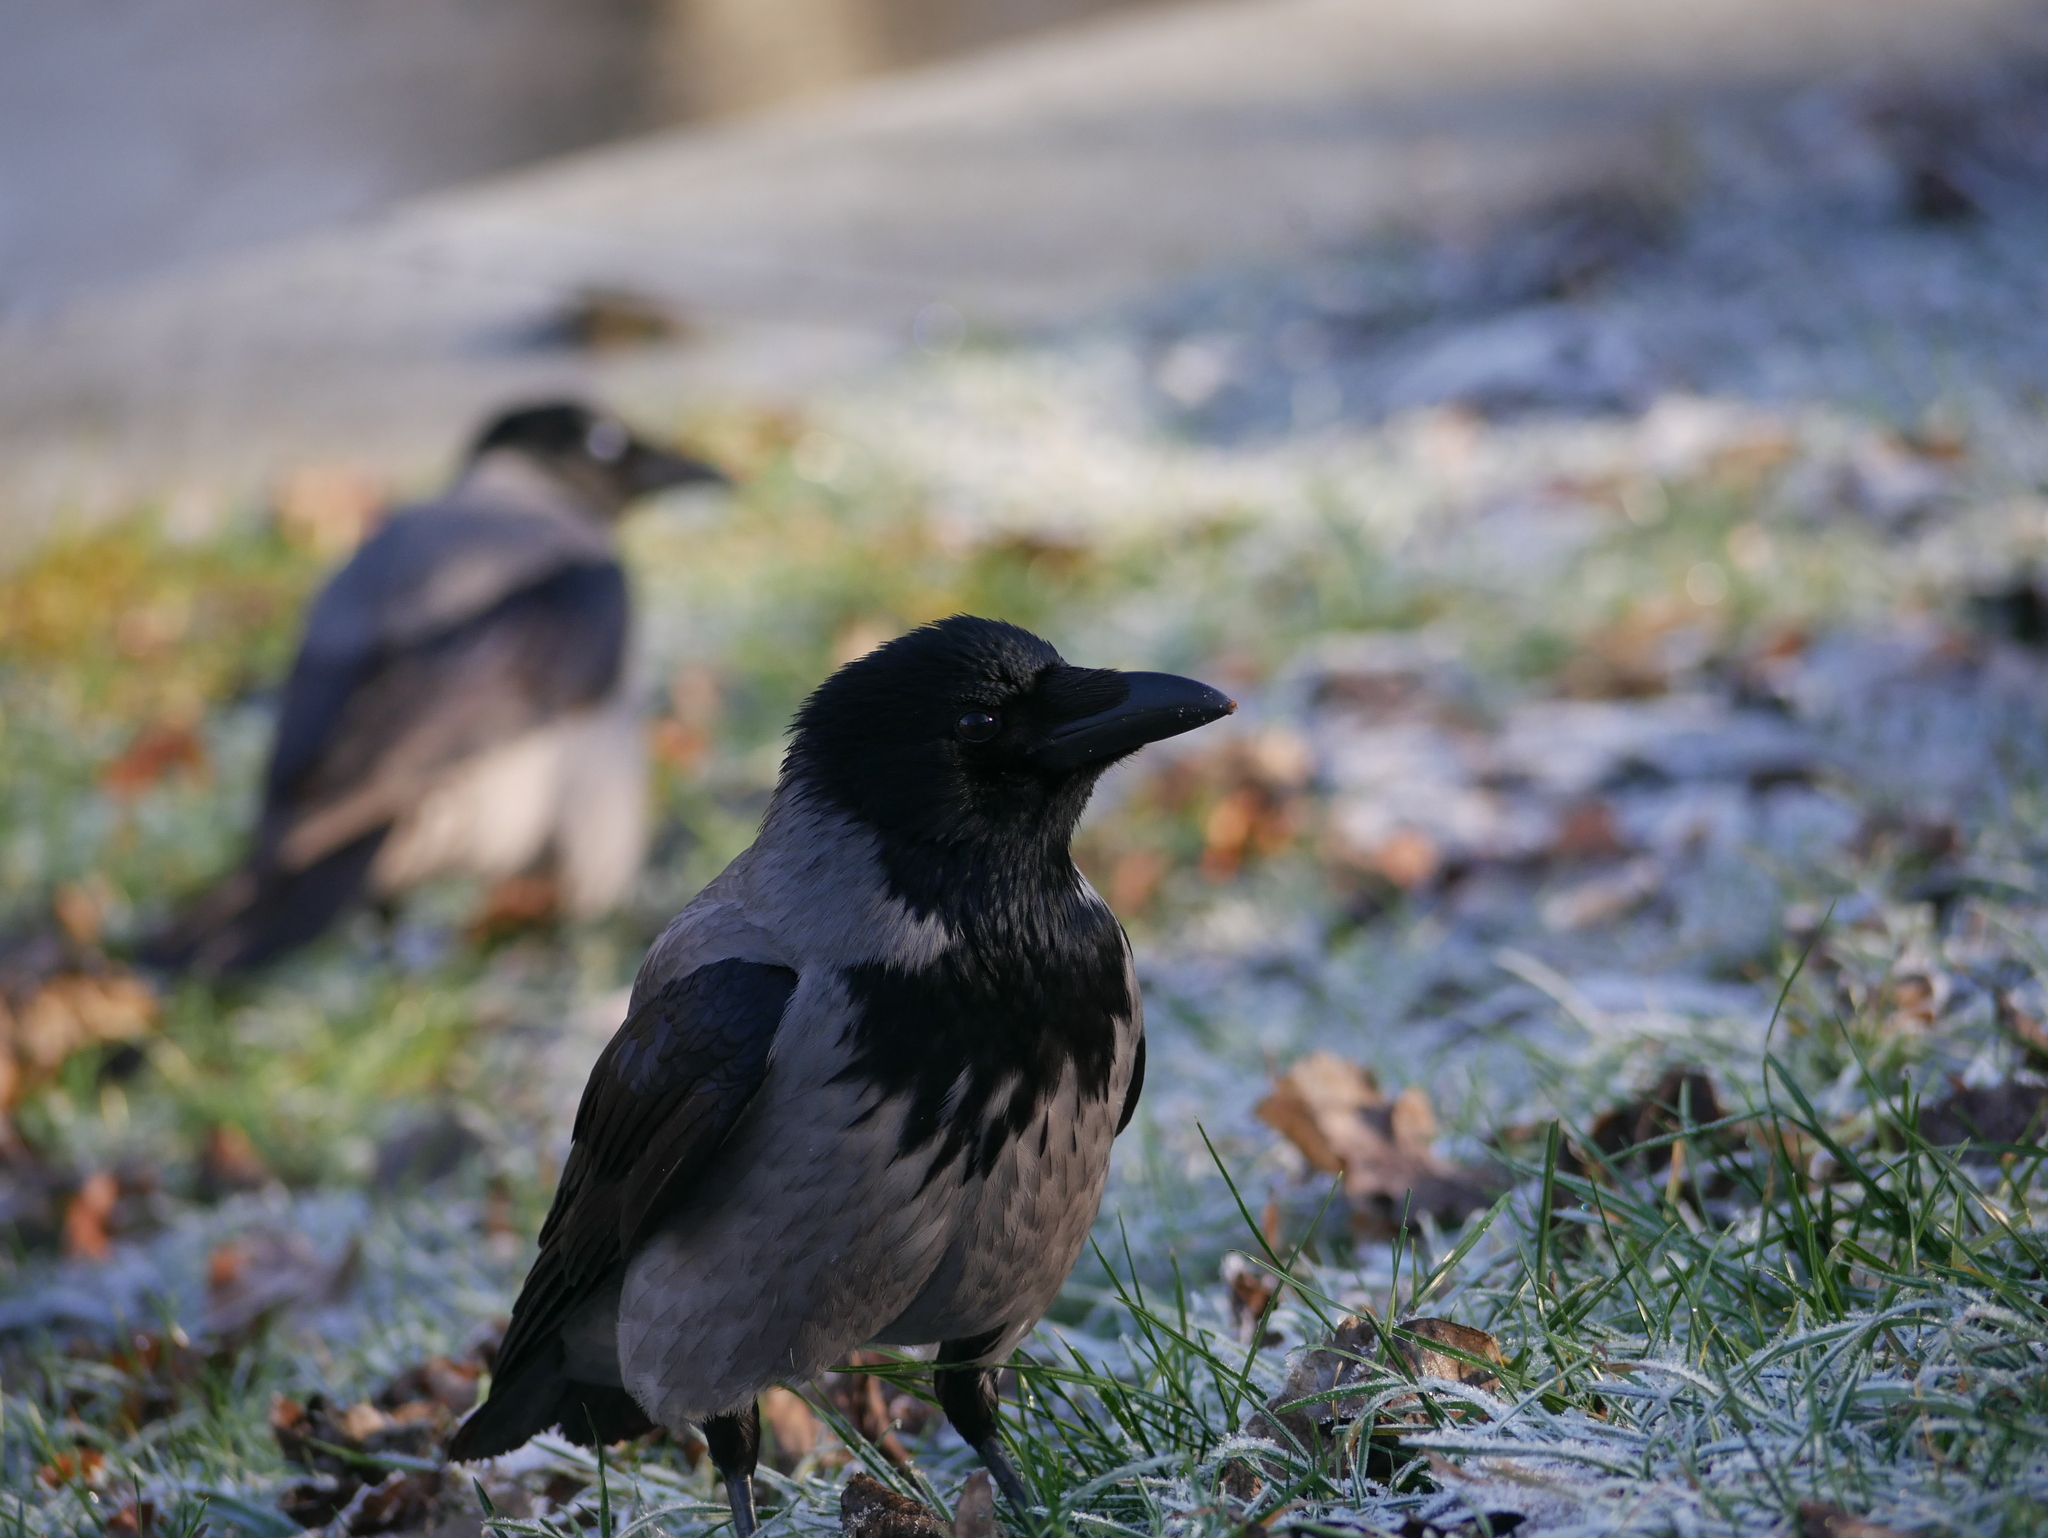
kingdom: Animalia
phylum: Chordata
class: Aves
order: Passeriformes
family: Corvidae
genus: Corvus
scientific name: Corvus cornix
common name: Hooded crow
